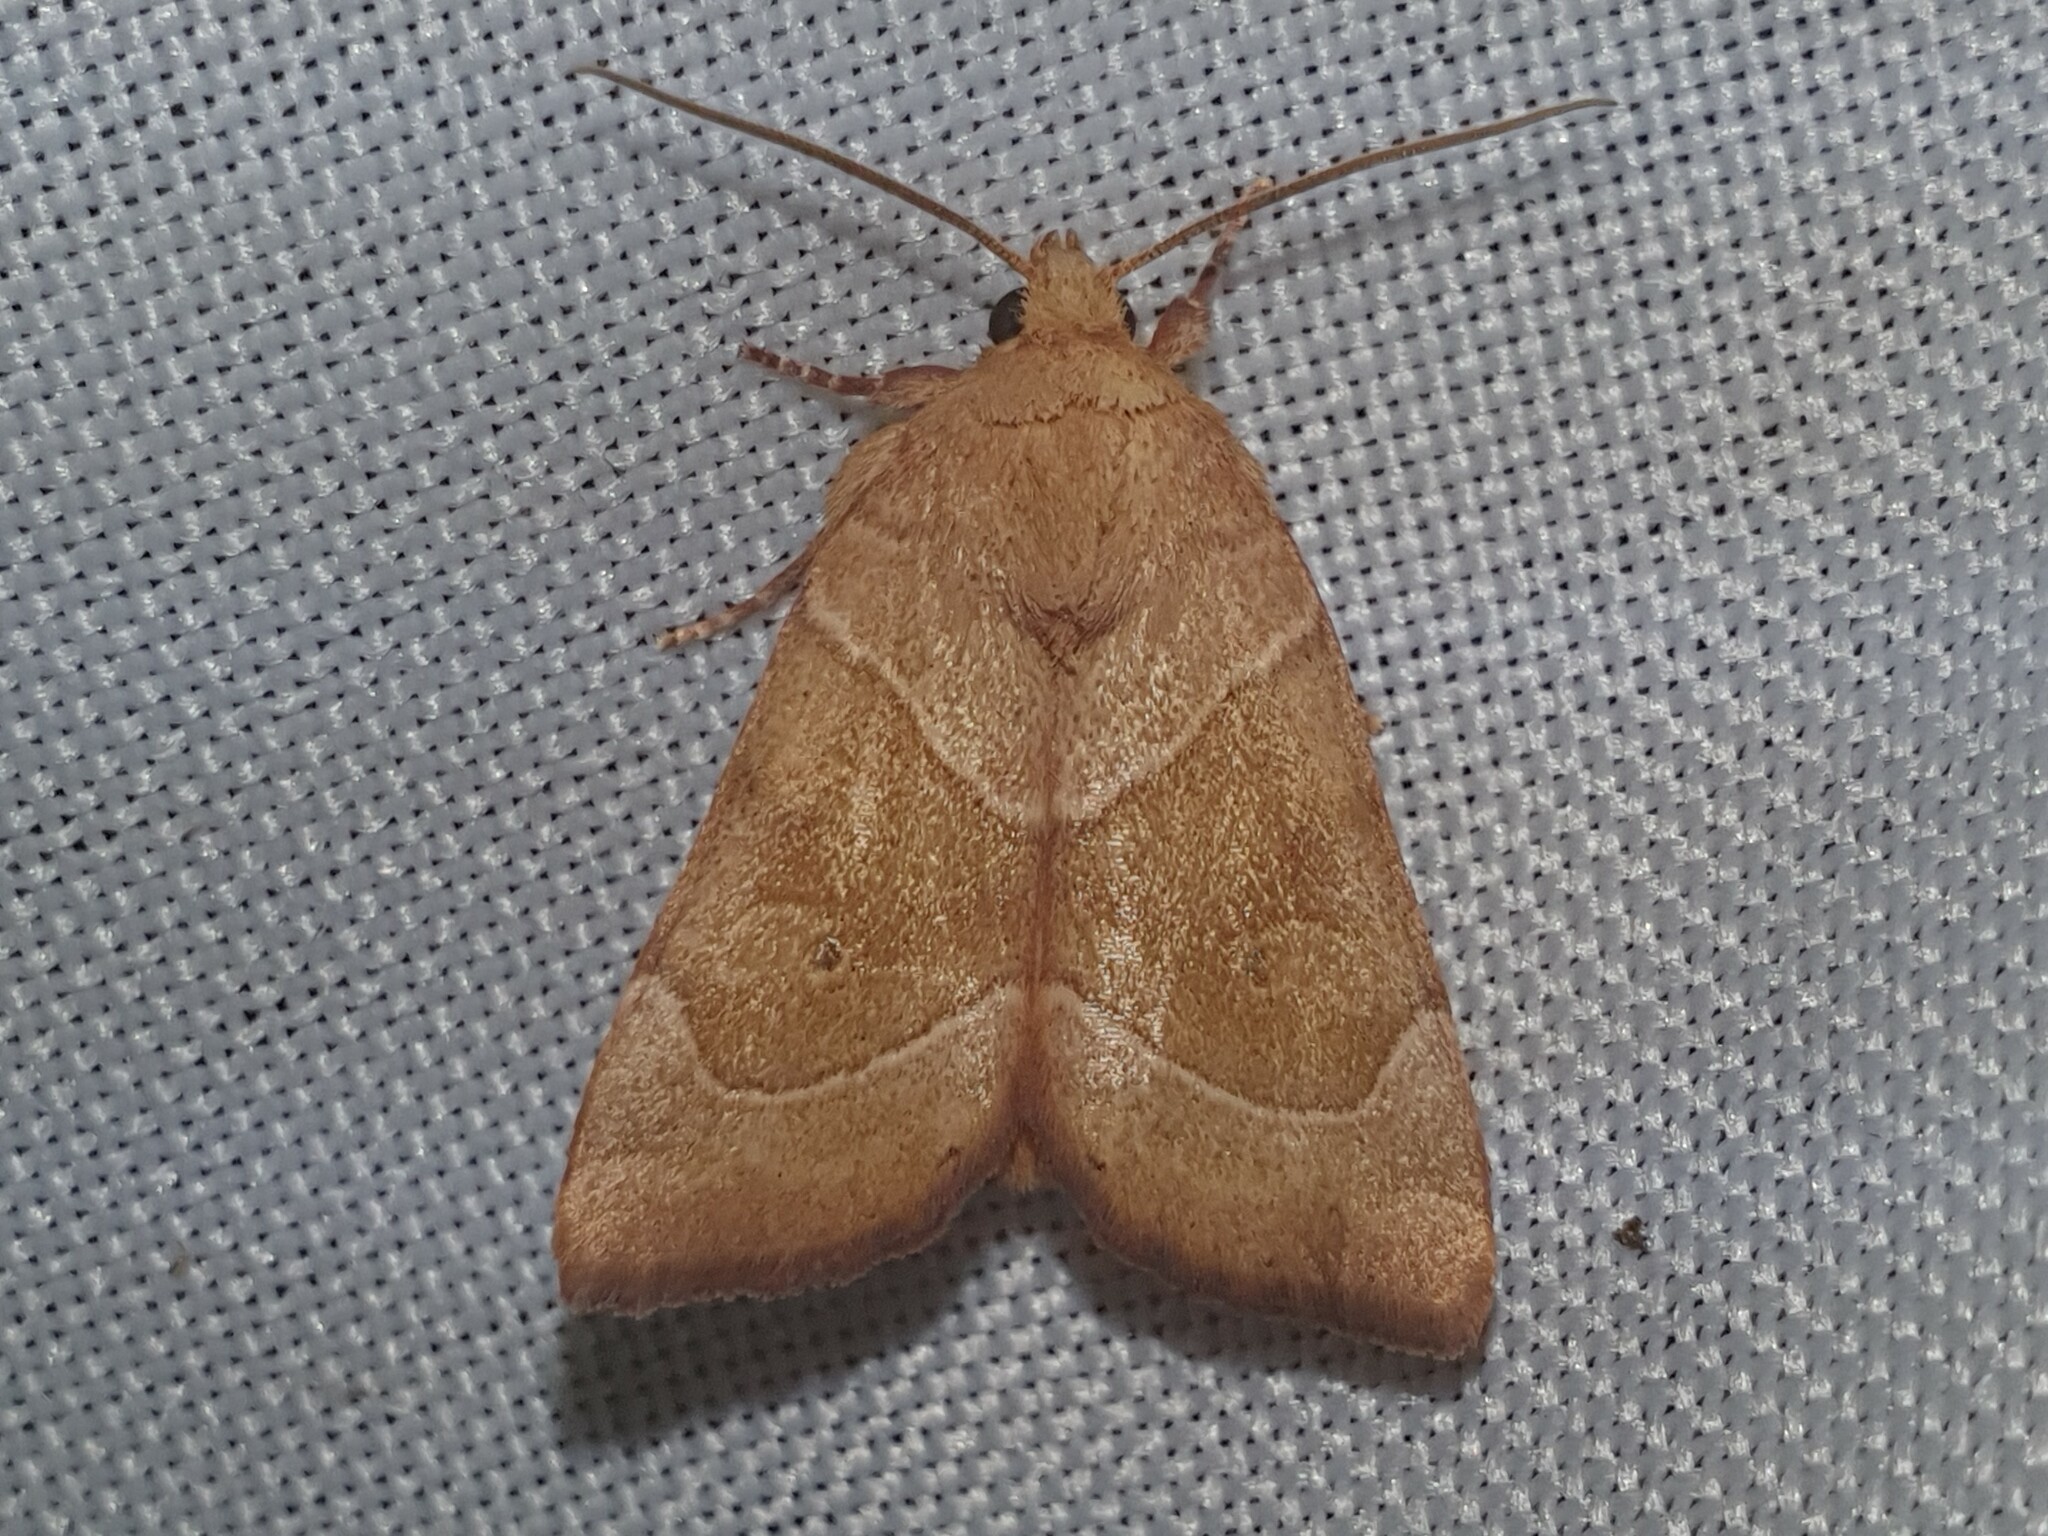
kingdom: Animalia
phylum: Arthropoda
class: Insecta
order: Lepidoptera
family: Noctuidae
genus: Cosmia
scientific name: Cosmia trapezina
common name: Dun-bar
